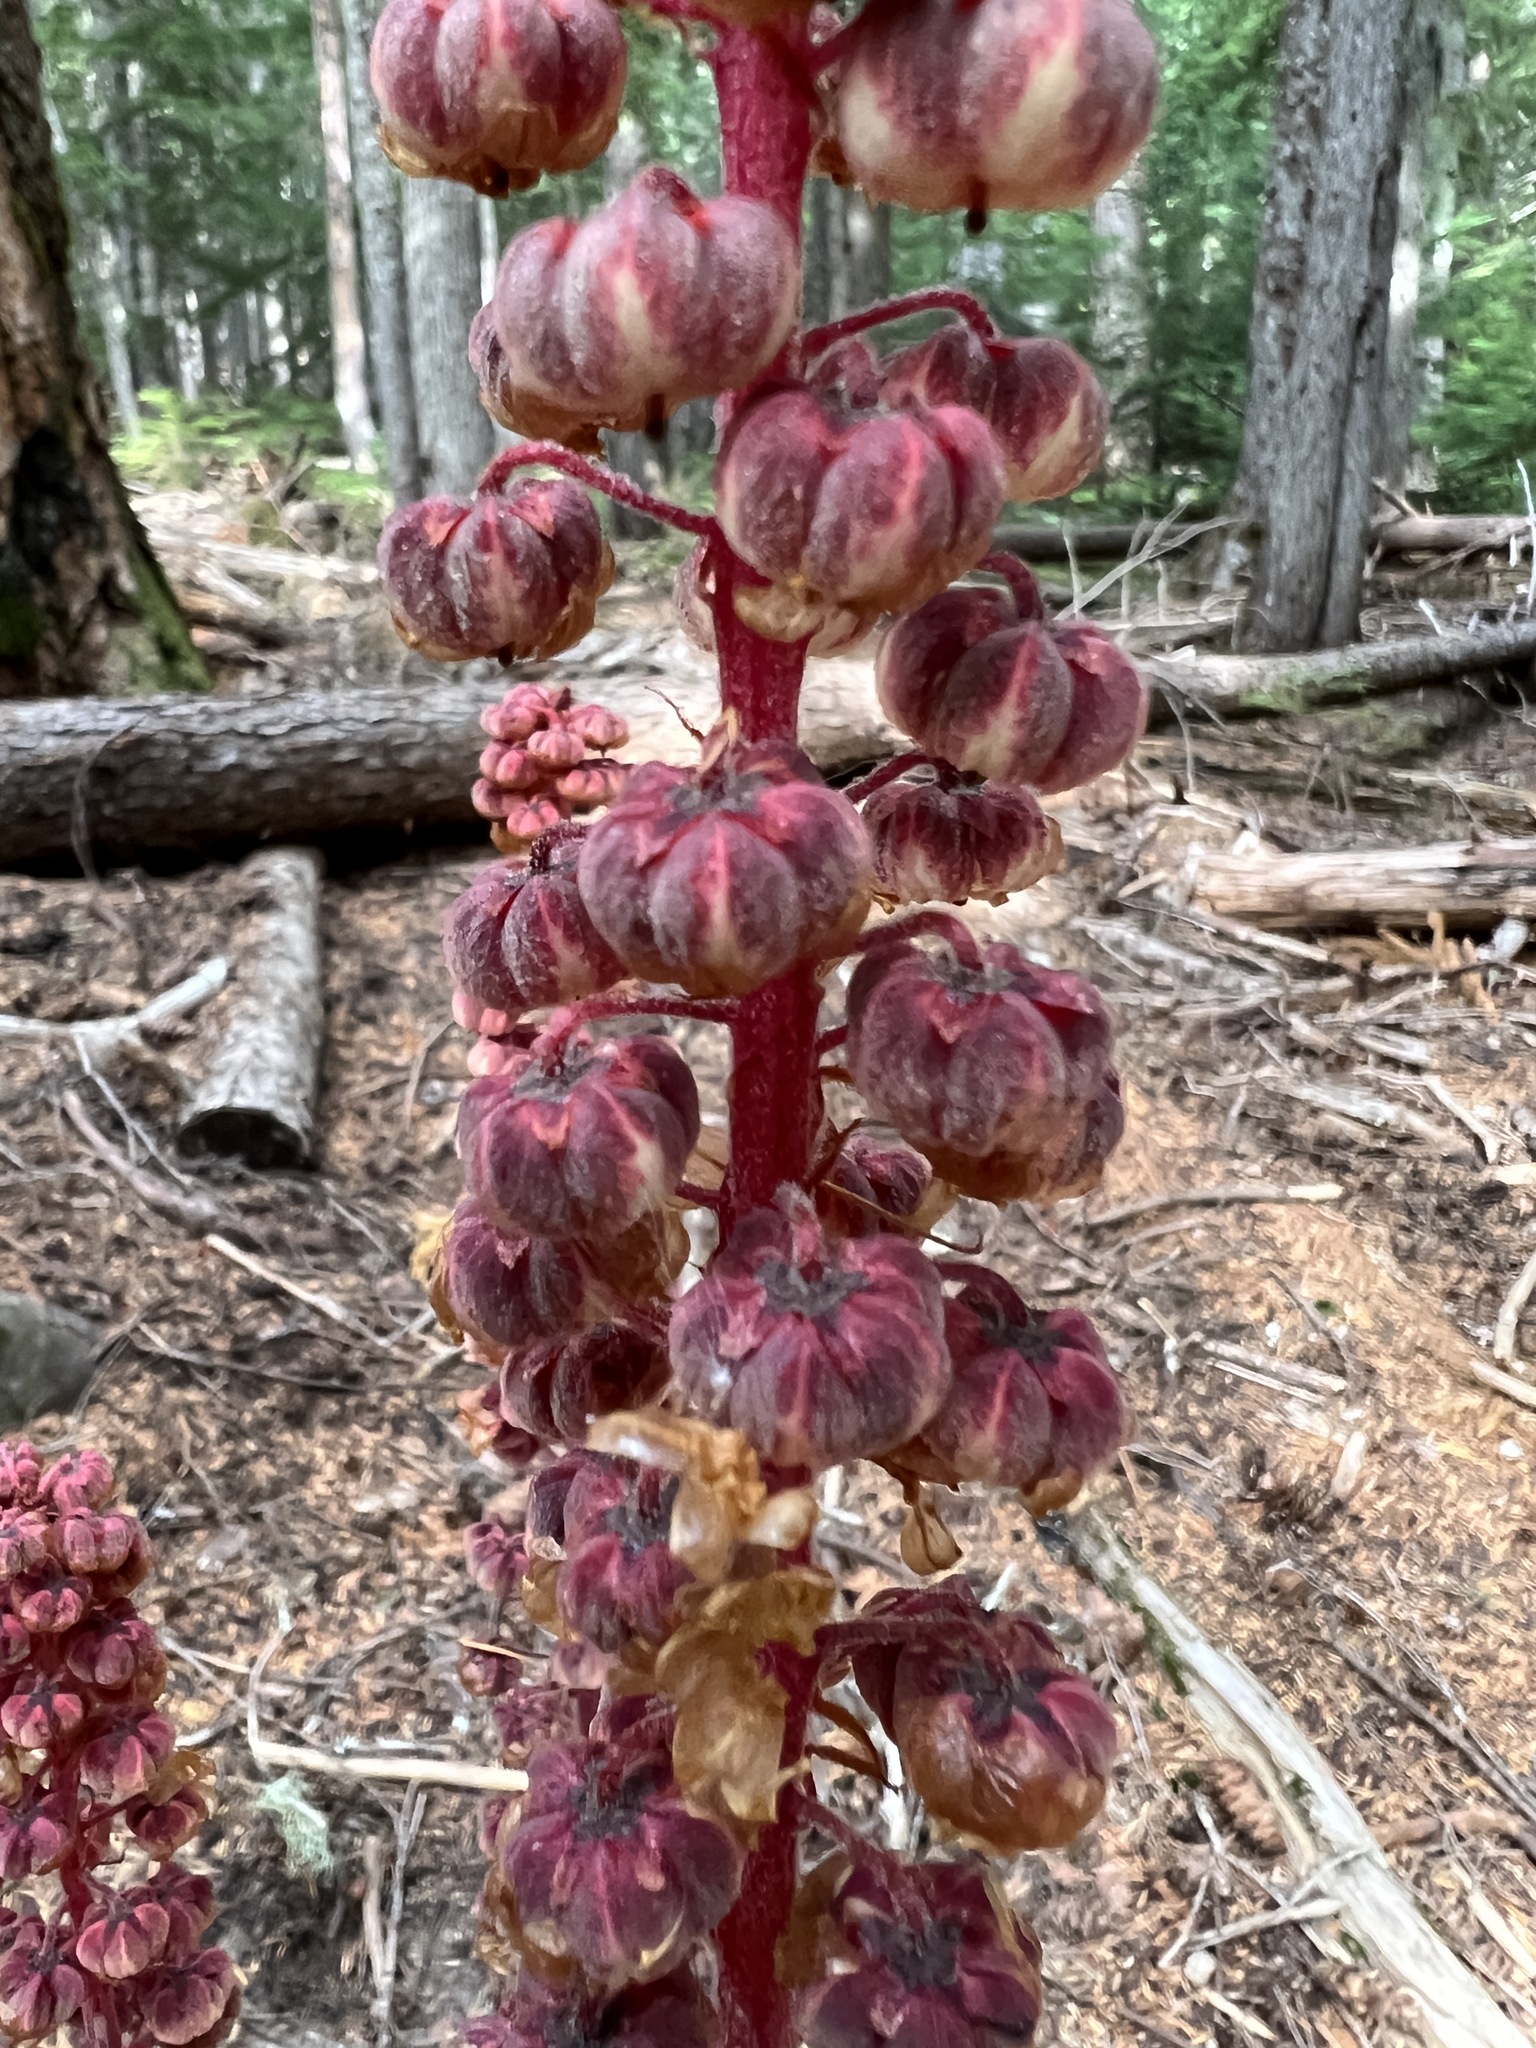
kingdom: Plantae
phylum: Tracheophyta
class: Magnoliopsida
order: Ericales
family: Ericaceae
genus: Pterospora
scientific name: Pterospora andromedea
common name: Giant bird's-nest
